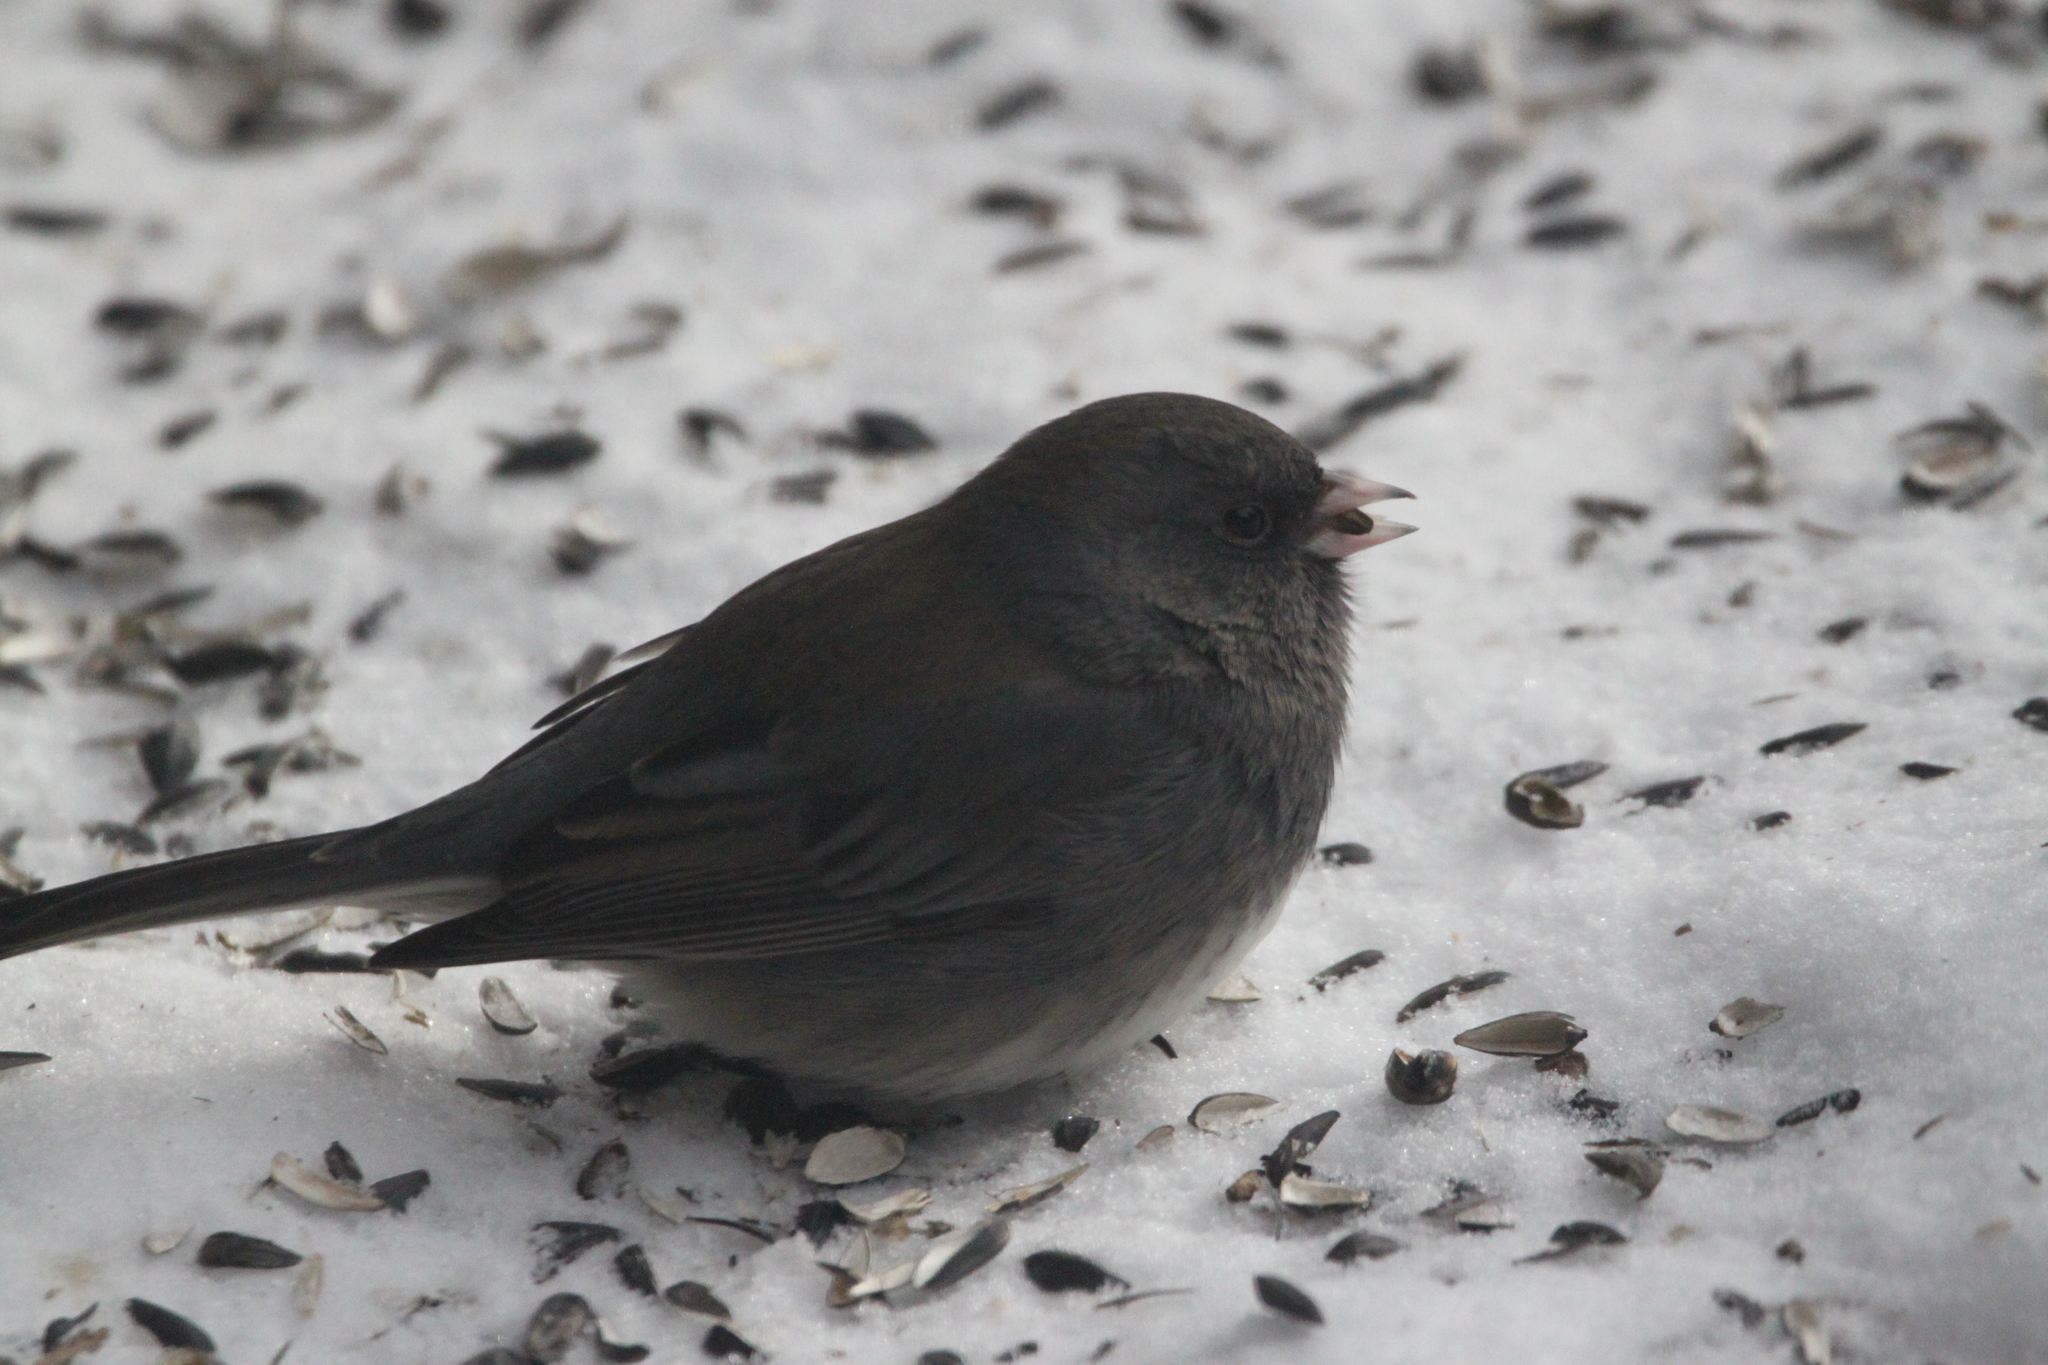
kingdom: Animalia
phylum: Chordata
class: Aves
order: Passeriformes
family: Passerellidae
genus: Junco
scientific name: Junco hyemalis
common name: Dark-eyed junco
